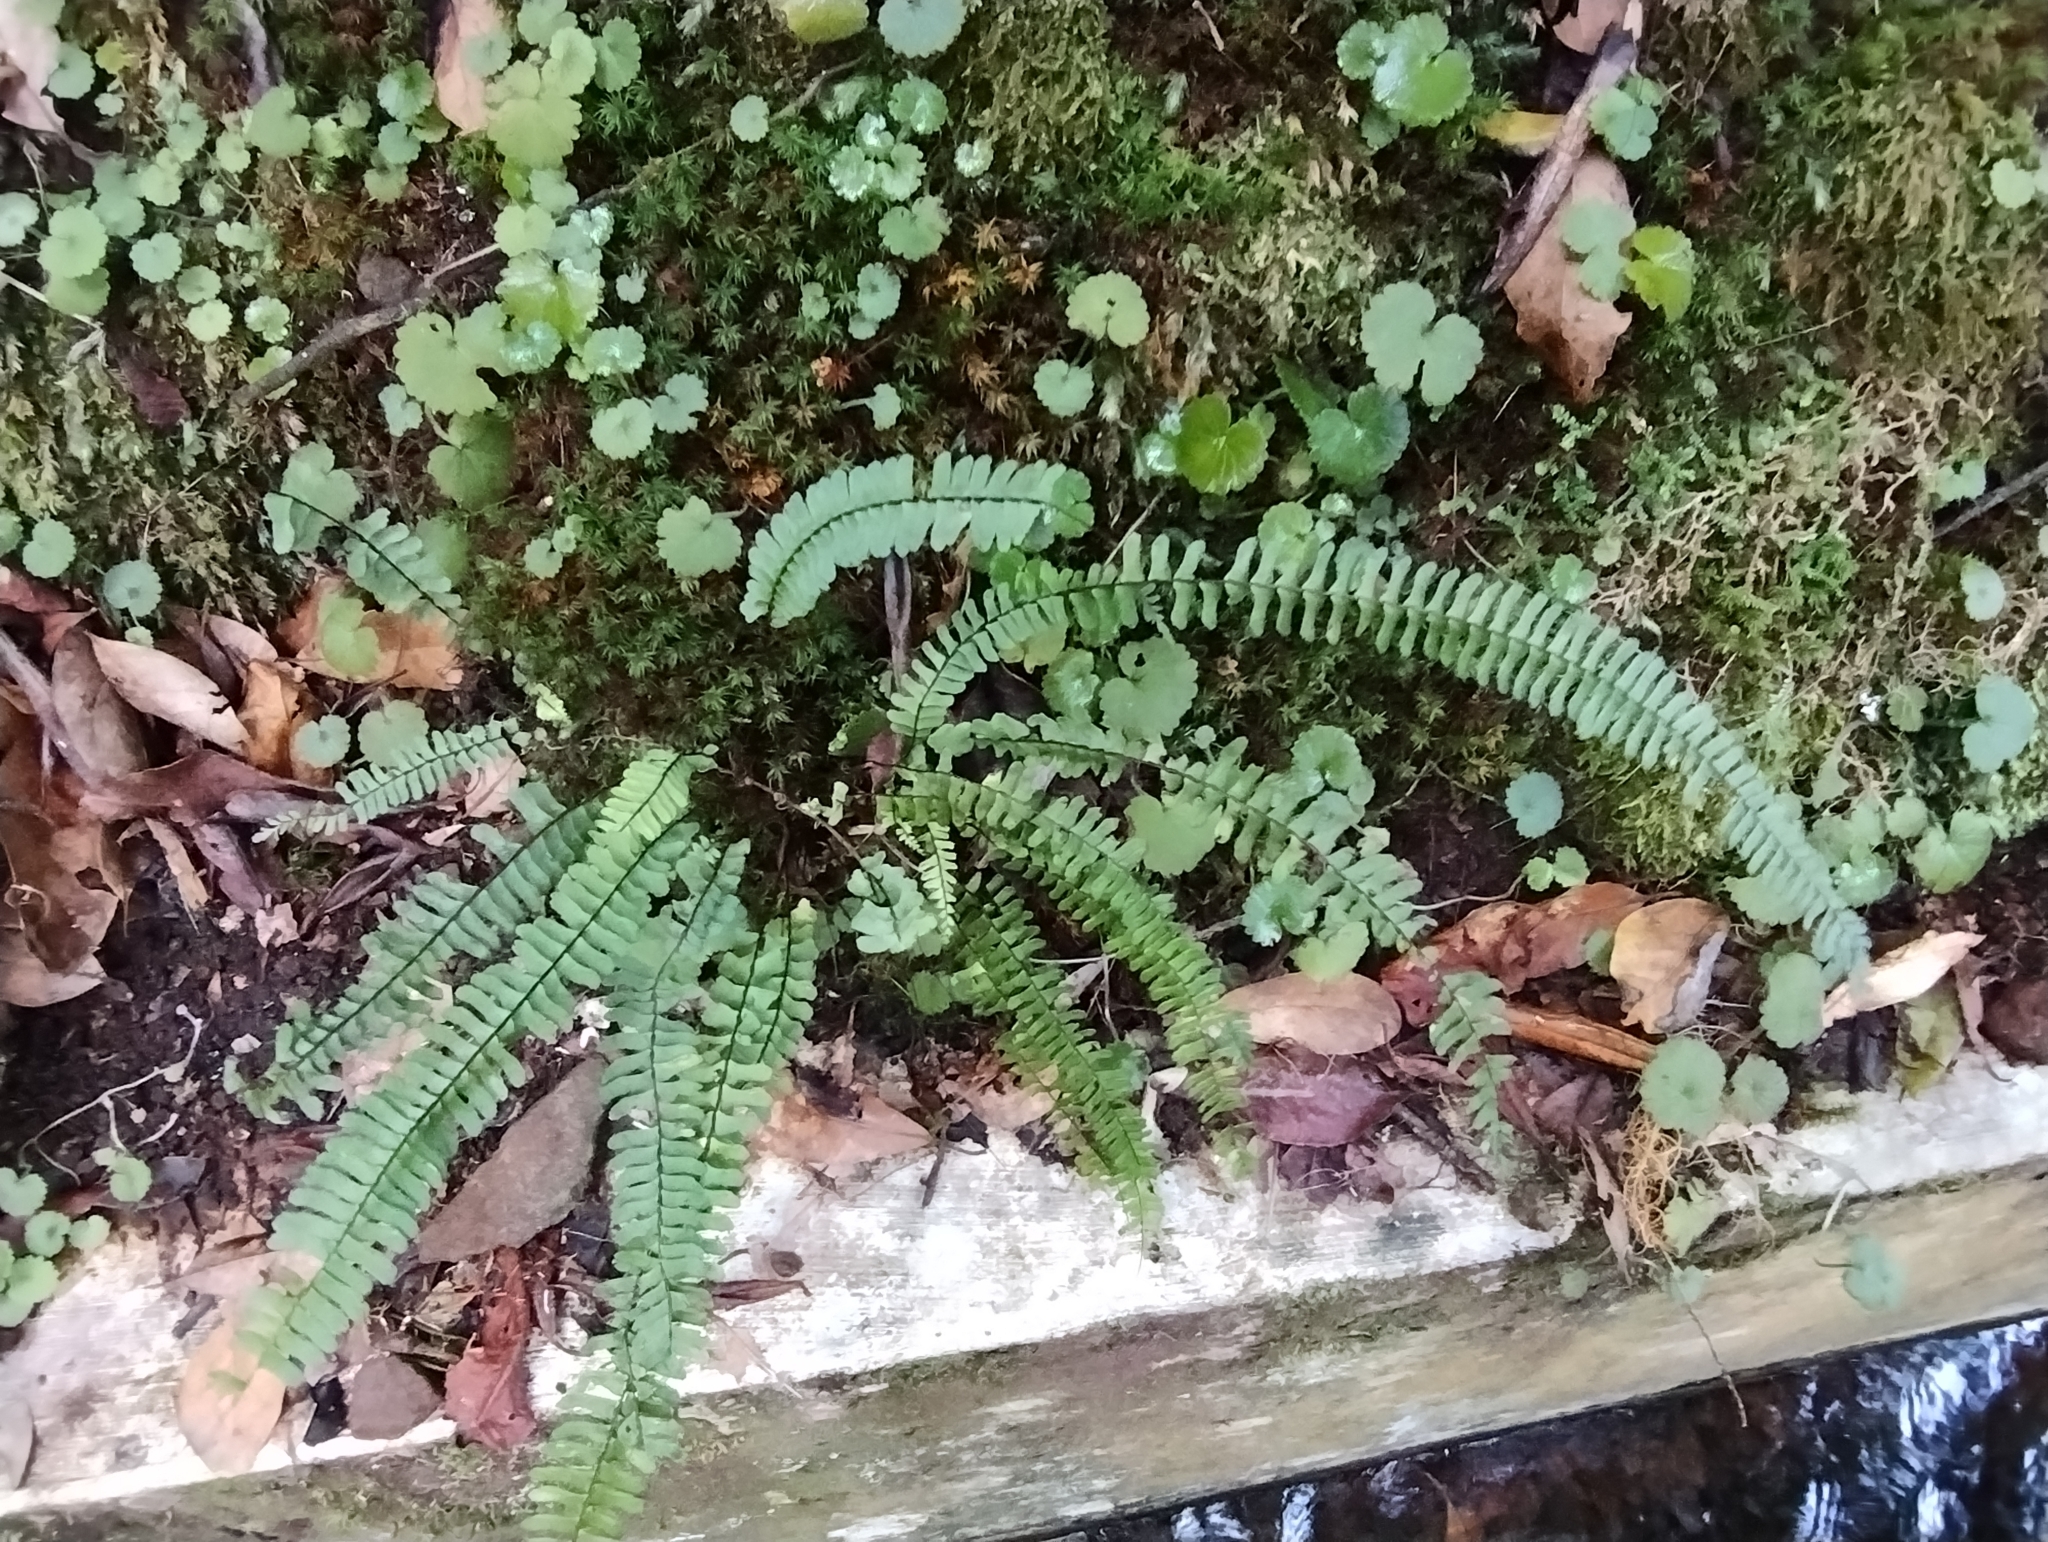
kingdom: Plantae
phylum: Tracheophyta
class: Polypodiopsida
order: Polypodiales
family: Aspleniaceae
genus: Asplenium
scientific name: Asplenium monanthes
